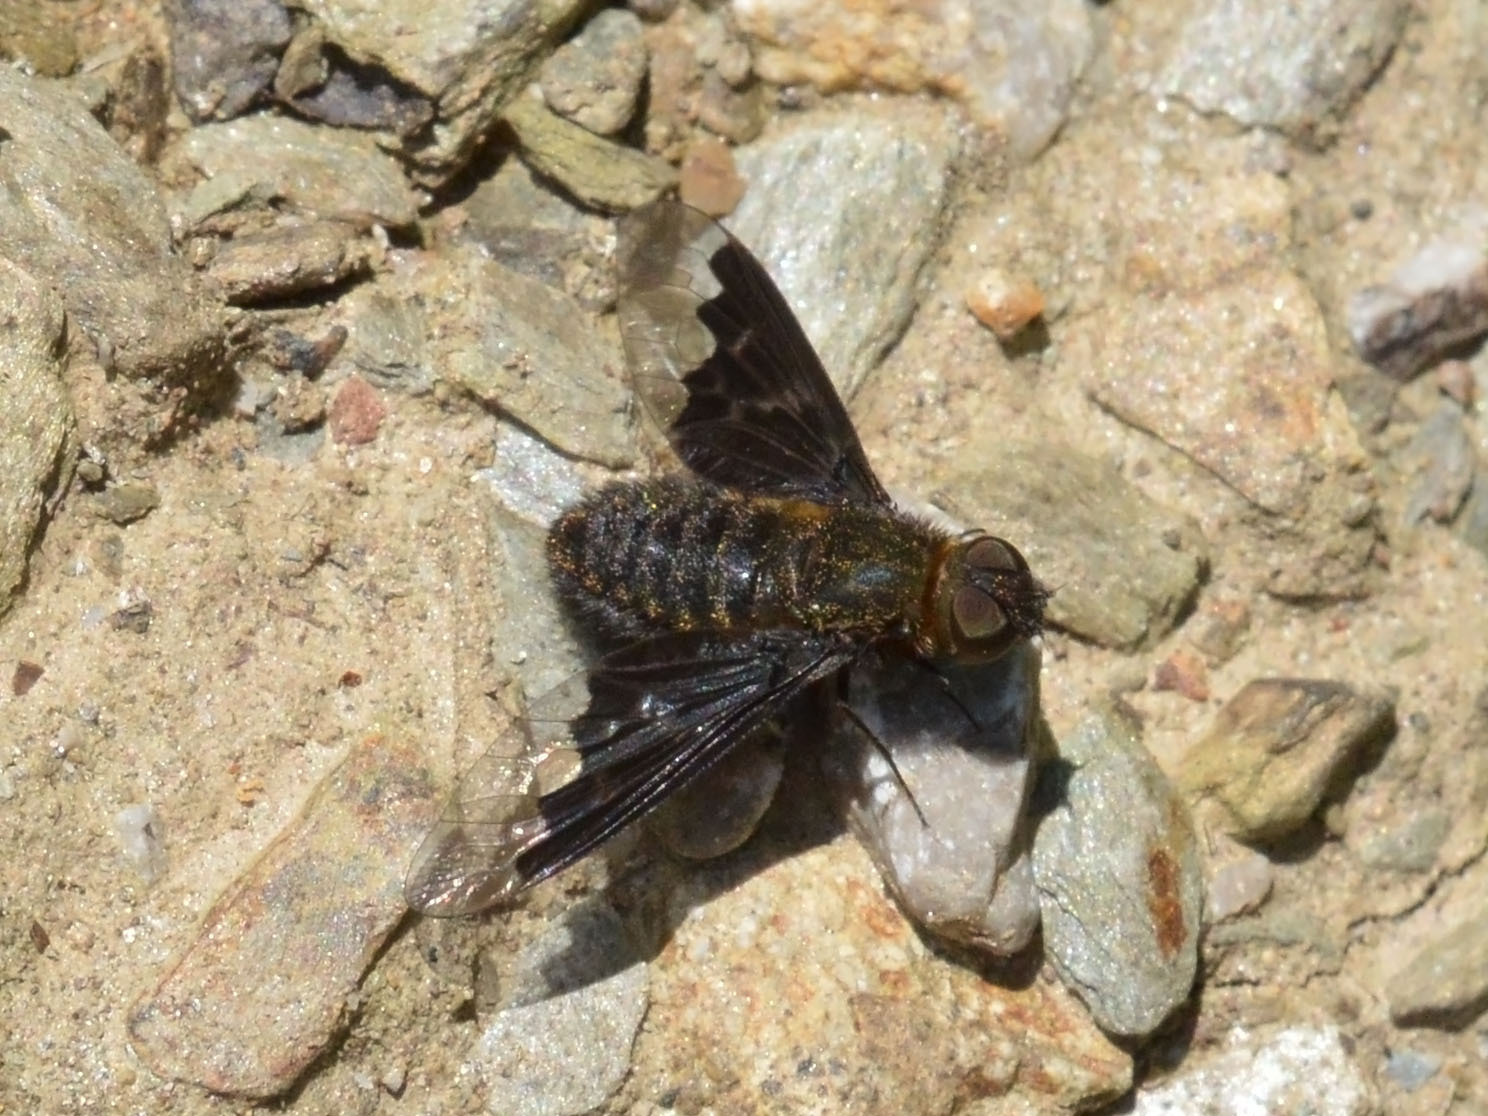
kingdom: Animalia
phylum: Arthropoda
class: Insecta
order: Diptera
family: Bombyliidae
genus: Hemipenthes
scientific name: Hemipenthes morio
